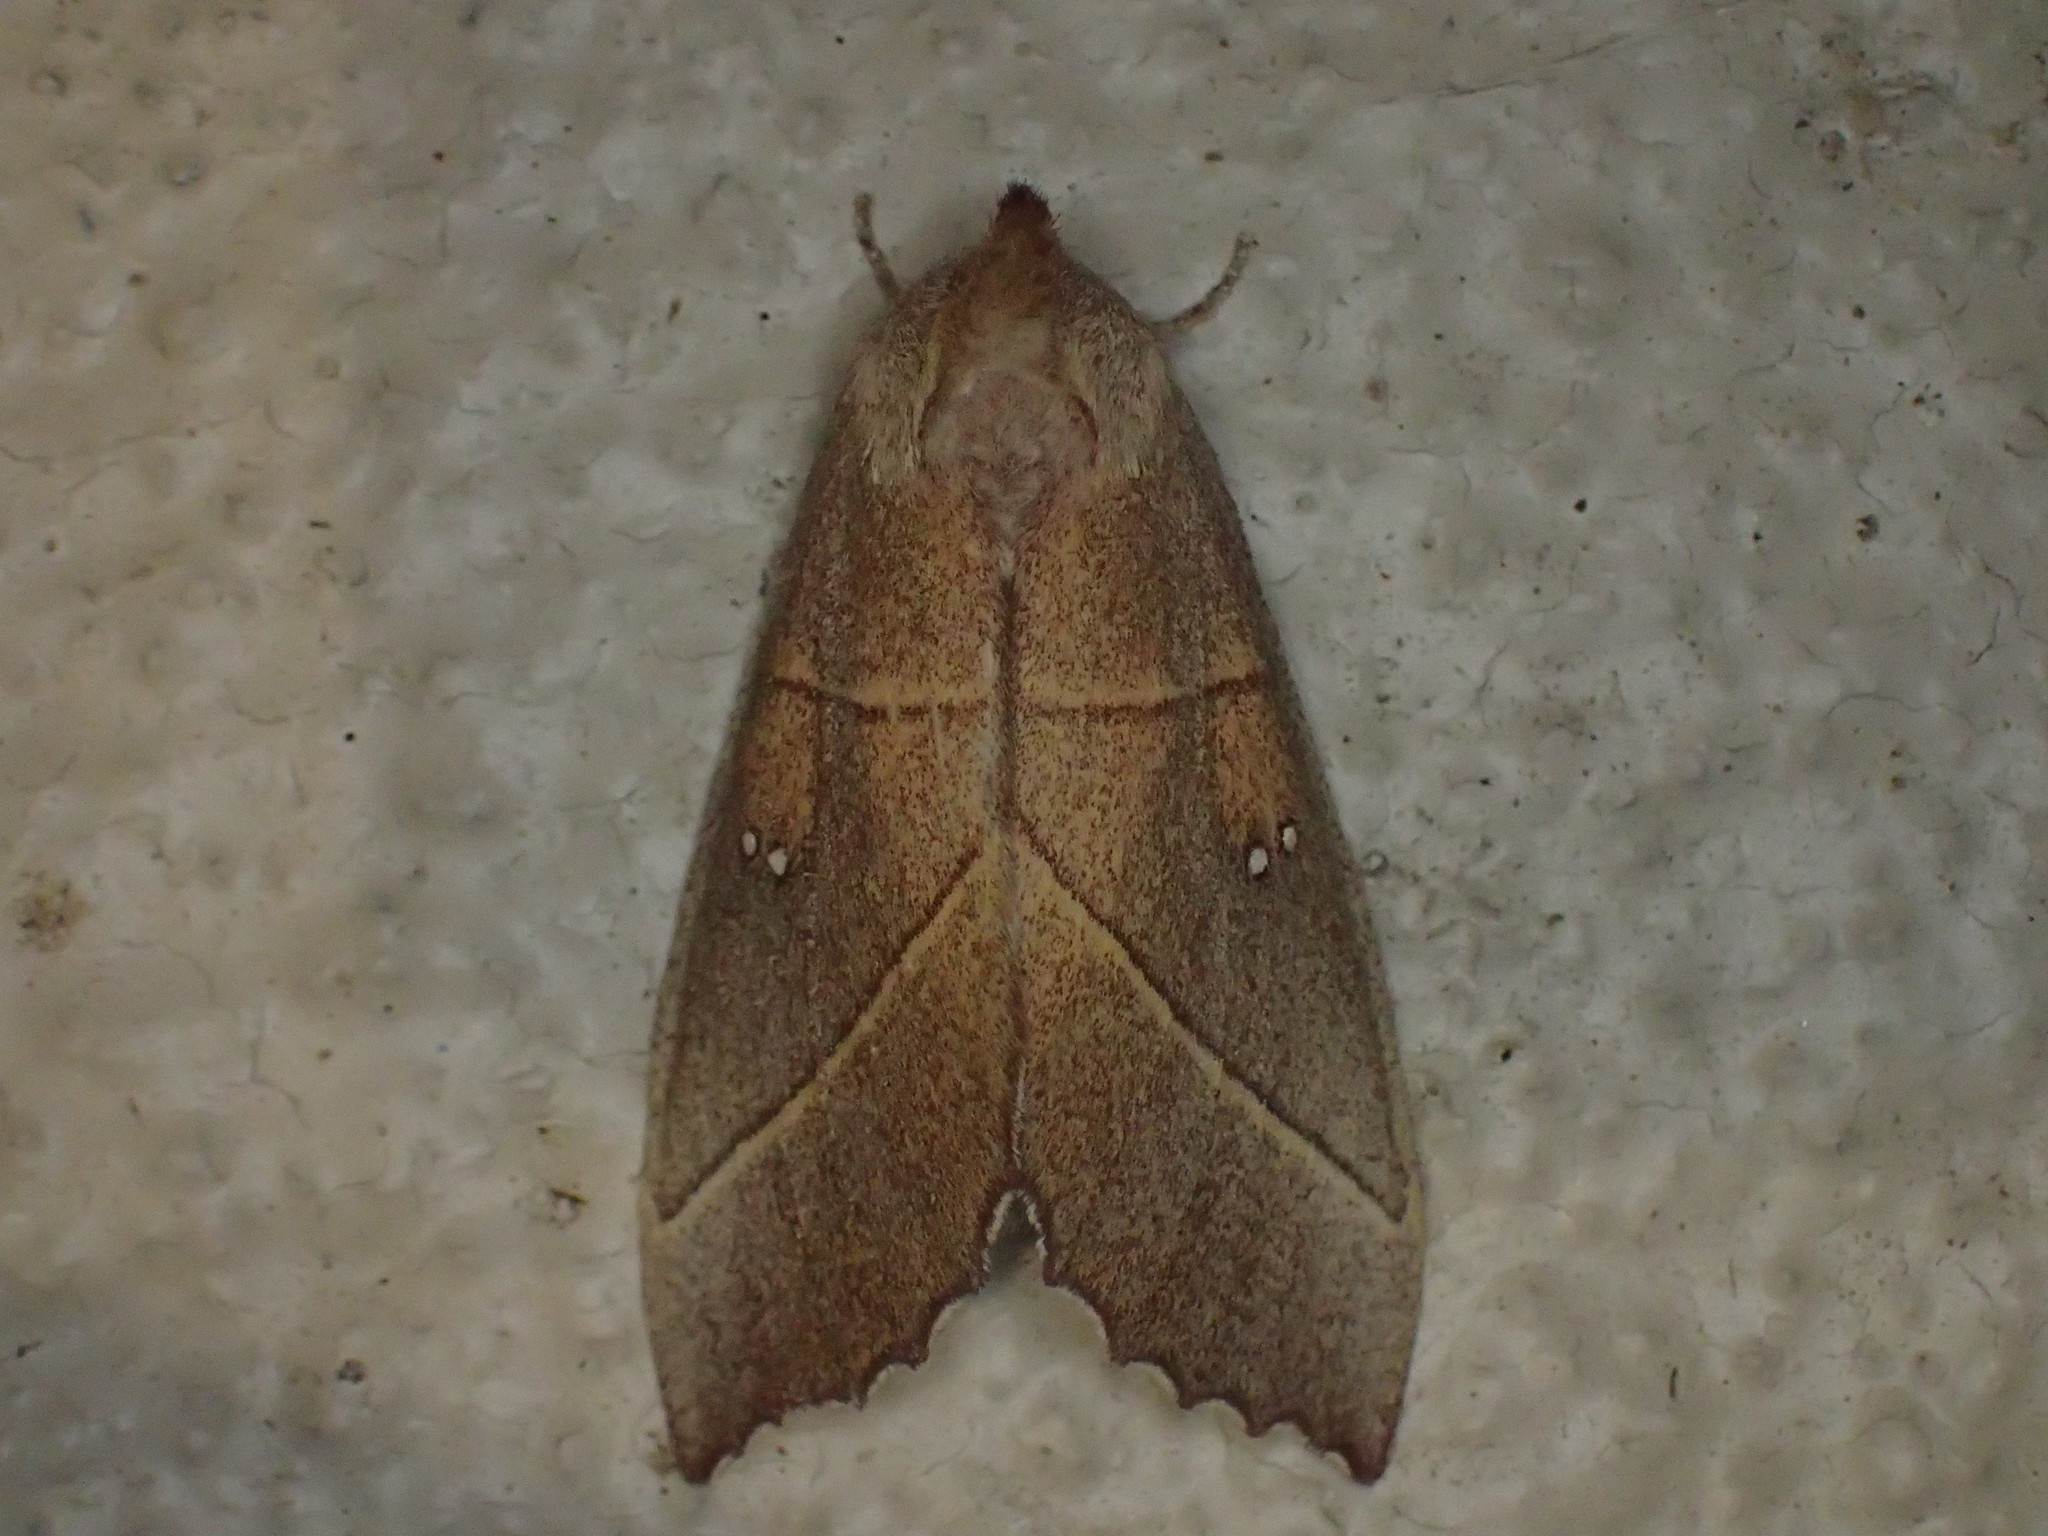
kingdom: Animalia
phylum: Arthropoda
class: Insecta
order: Lepidoptera
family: Notodontidae
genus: Nadata
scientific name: Nadata gibbosa
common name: White-dotted prominent
